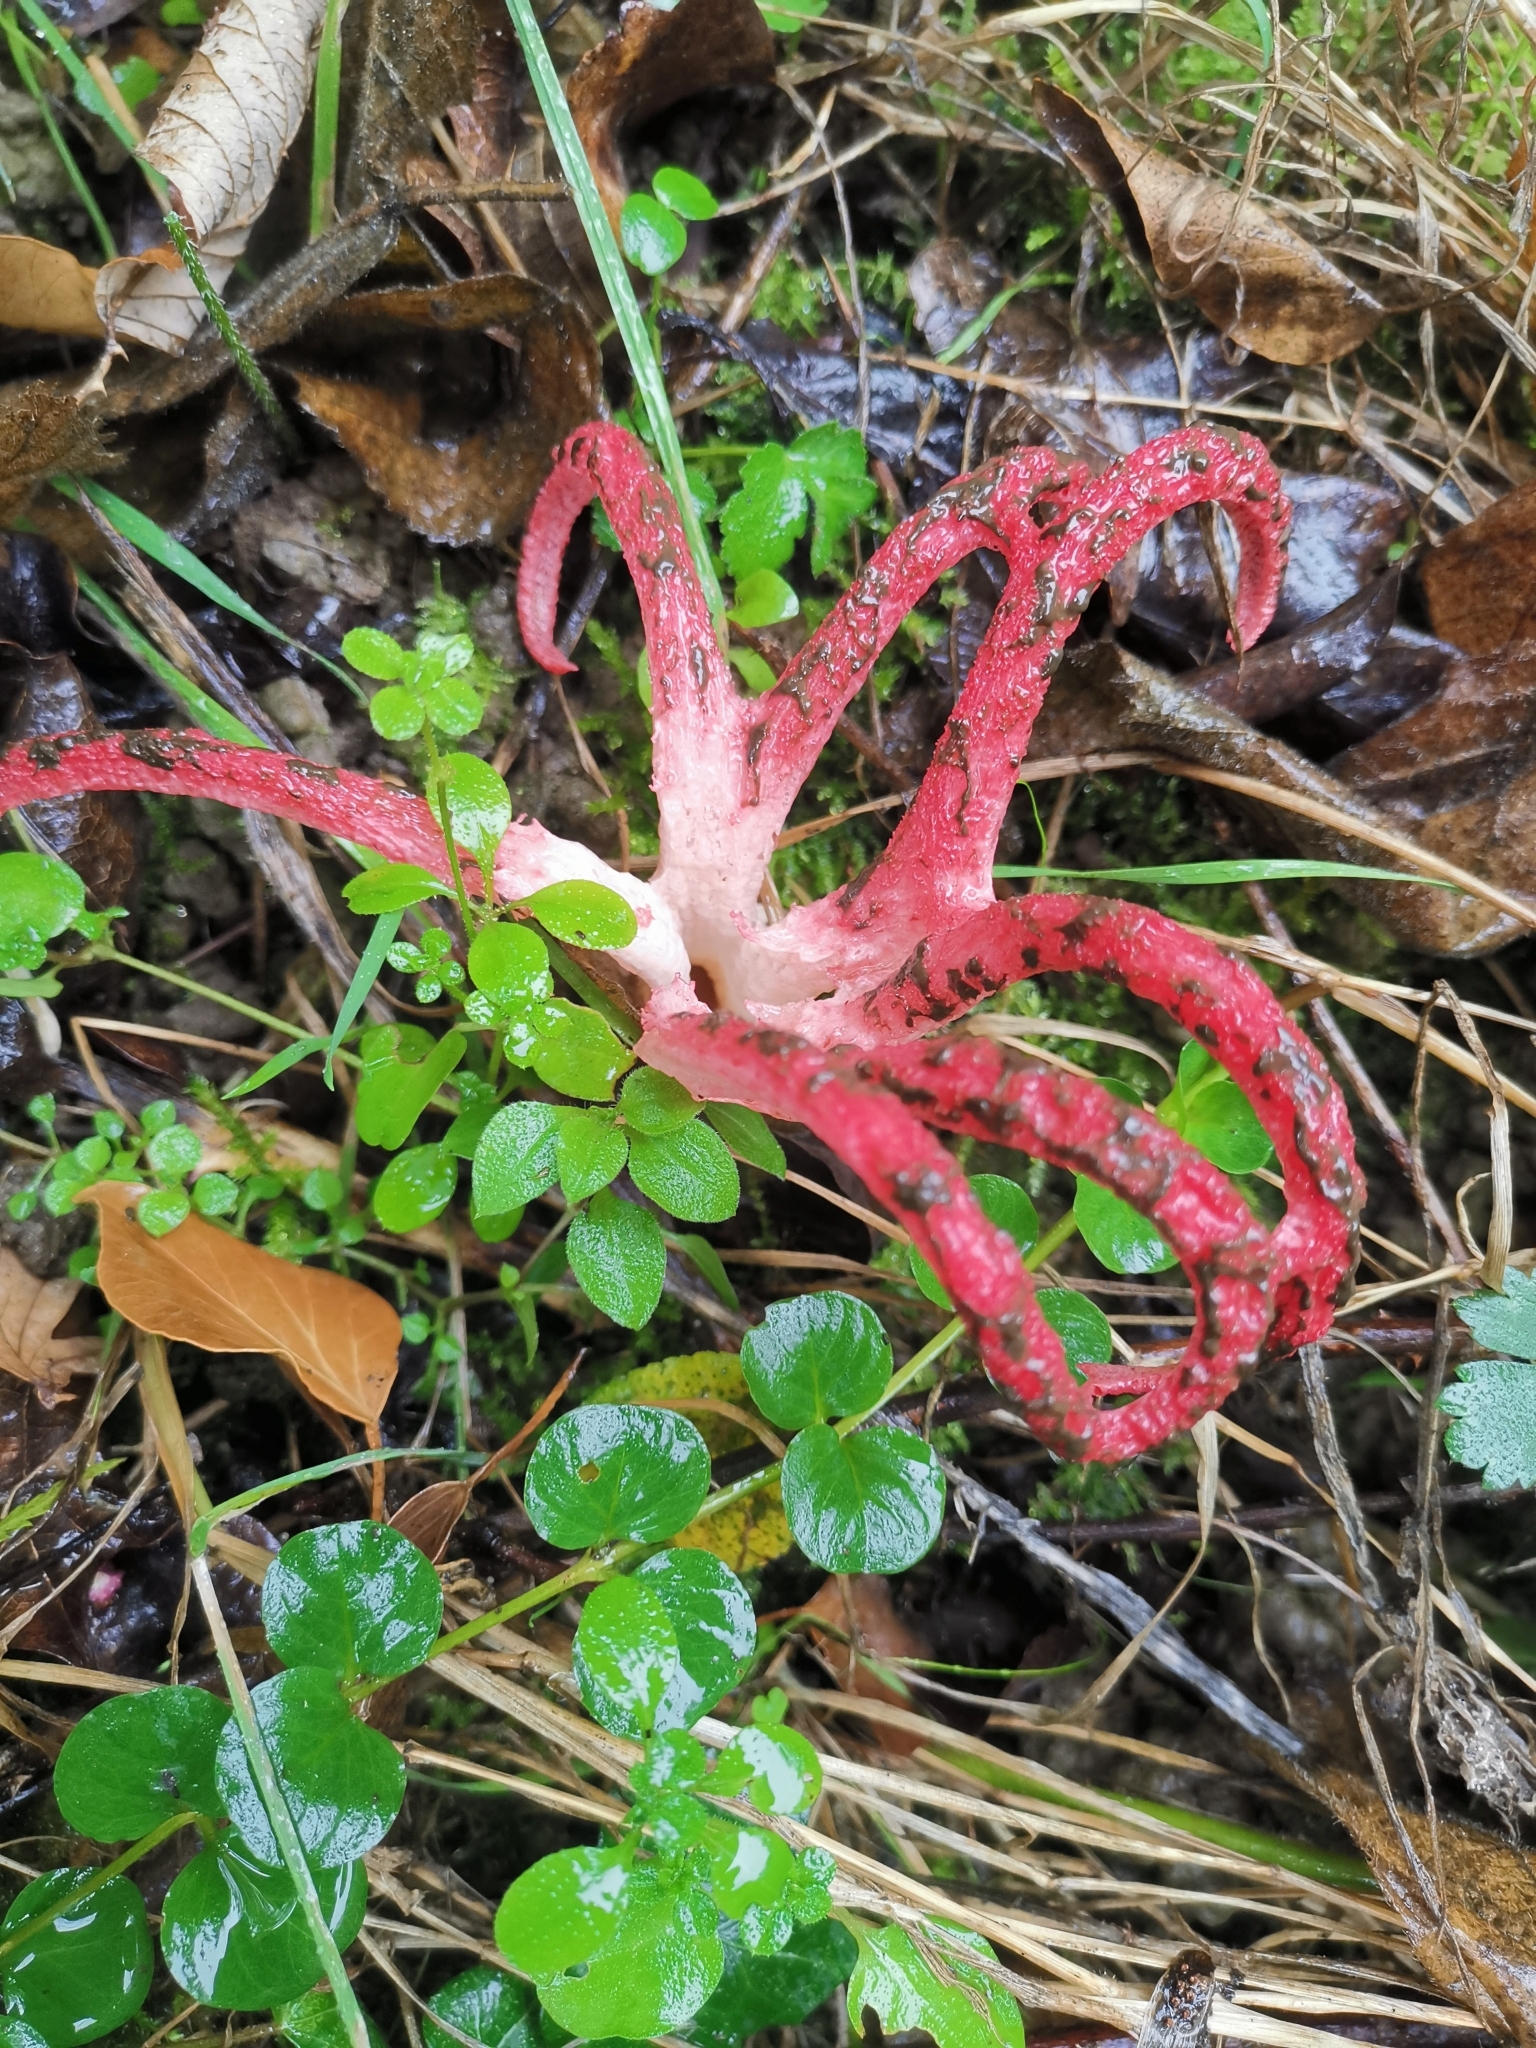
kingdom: Fungi
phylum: Basidiomycota
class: Agaricomycetes
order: Phallales
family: Phallaceae
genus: Clathrus
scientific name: Clathrus archeri
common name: Devil's fingers
